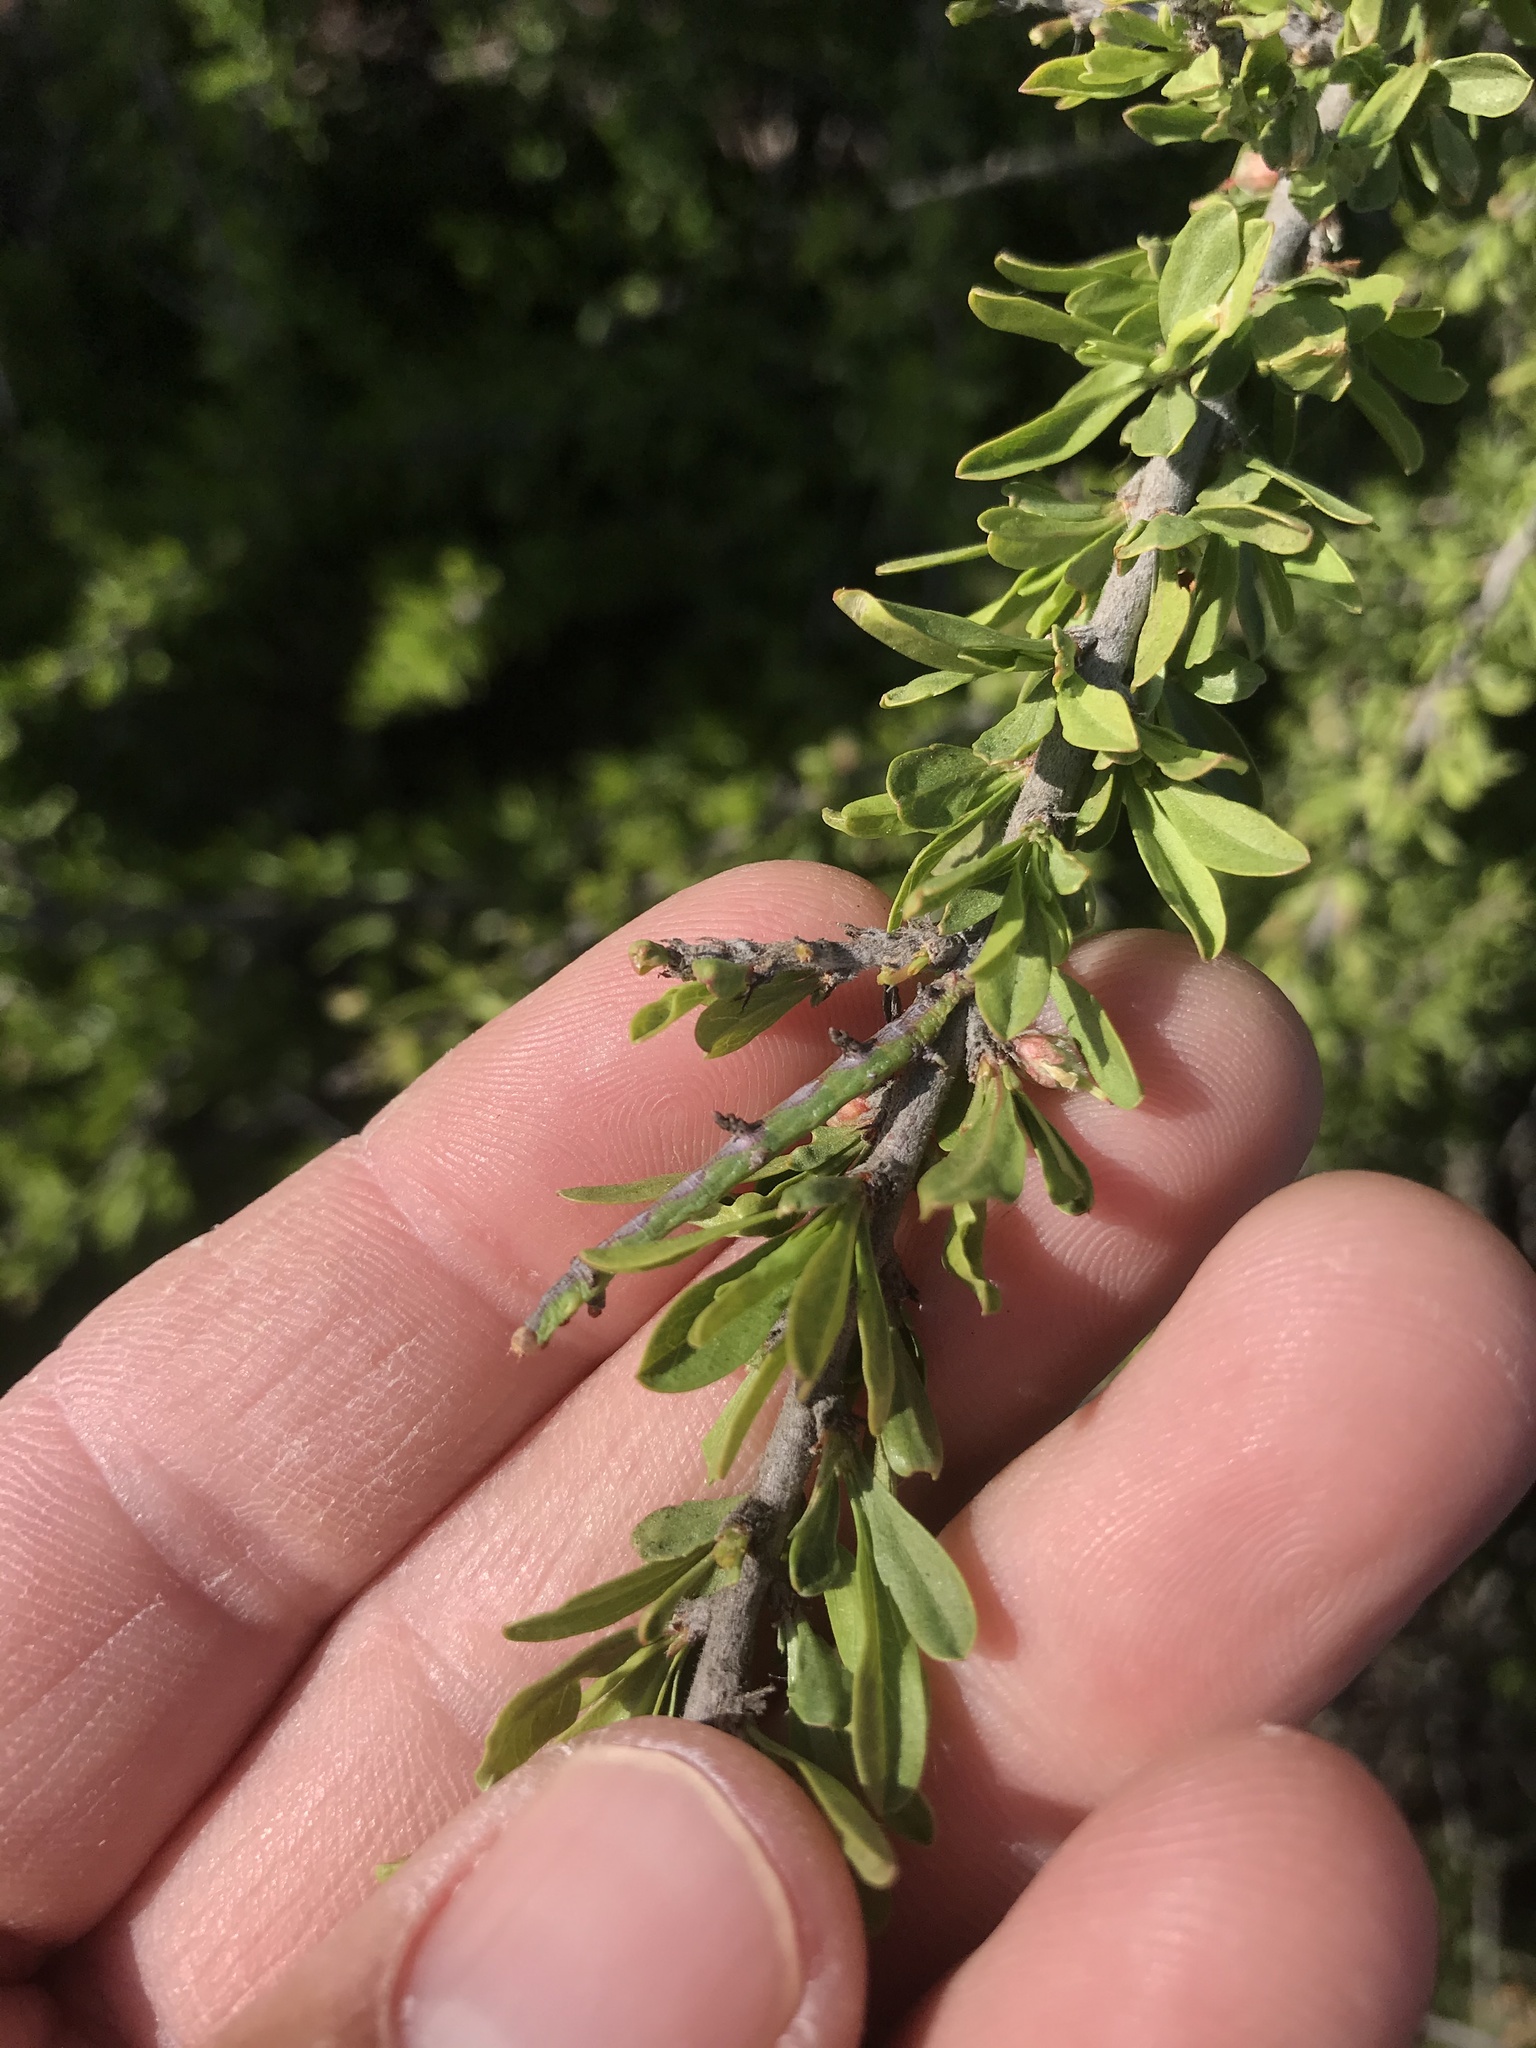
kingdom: Plantae
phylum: Tracheophyta
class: Magnoliopsida
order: Rosales
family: Rosaceae
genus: Prunus
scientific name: Prunus fasciculata
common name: Desert almond
